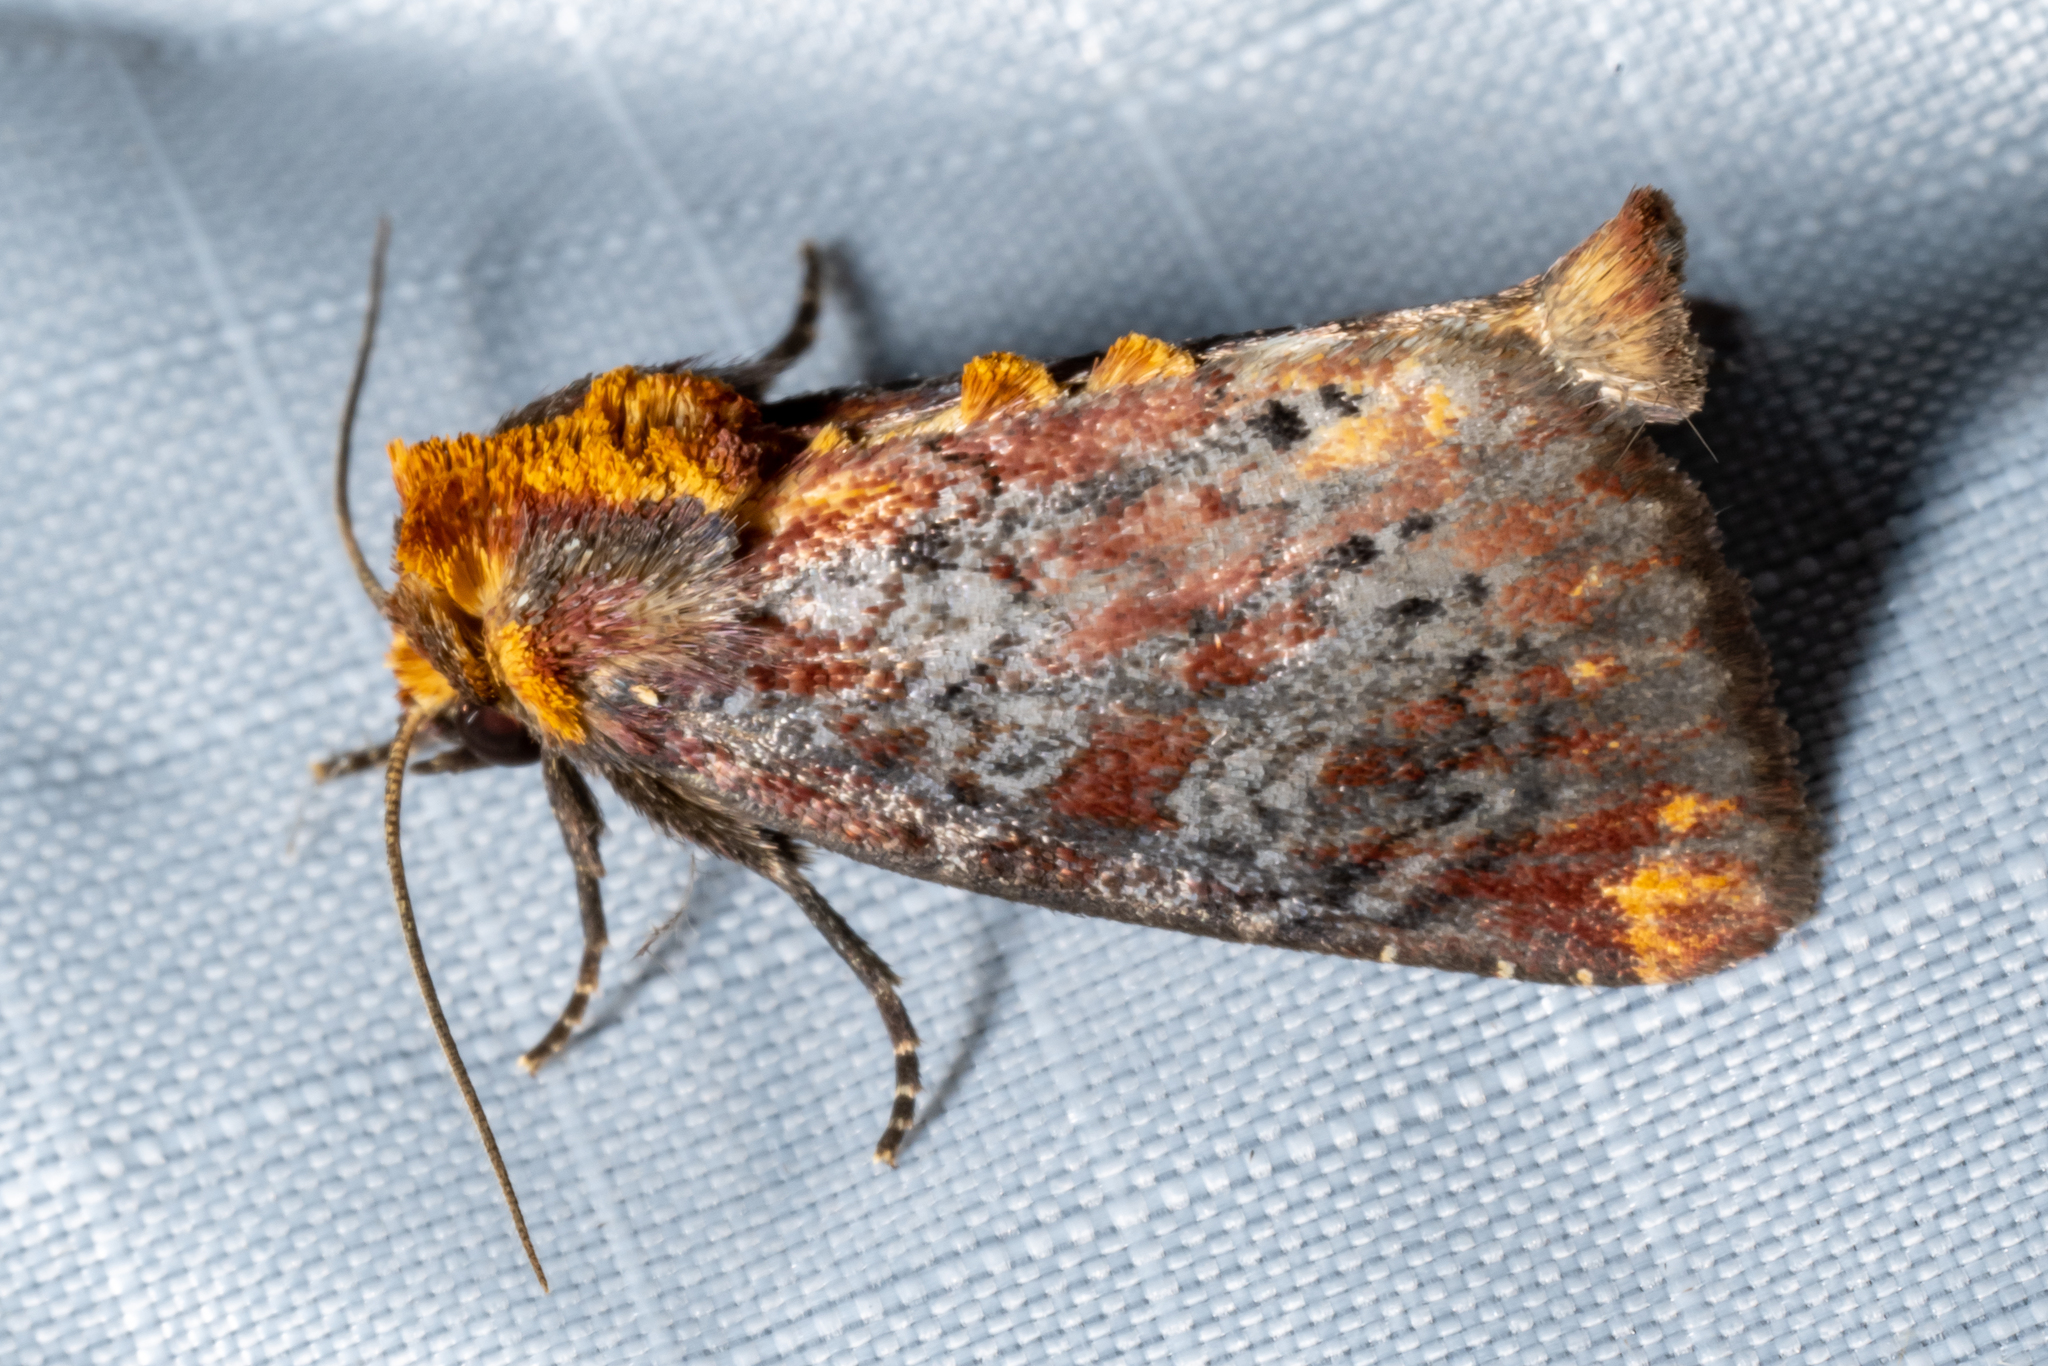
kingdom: Animalia
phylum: Arthropoda
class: Insecta
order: Lepidoptera
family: Noctuidae
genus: Achatodes
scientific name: Achatodes zeae
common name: Elder shoot borer
